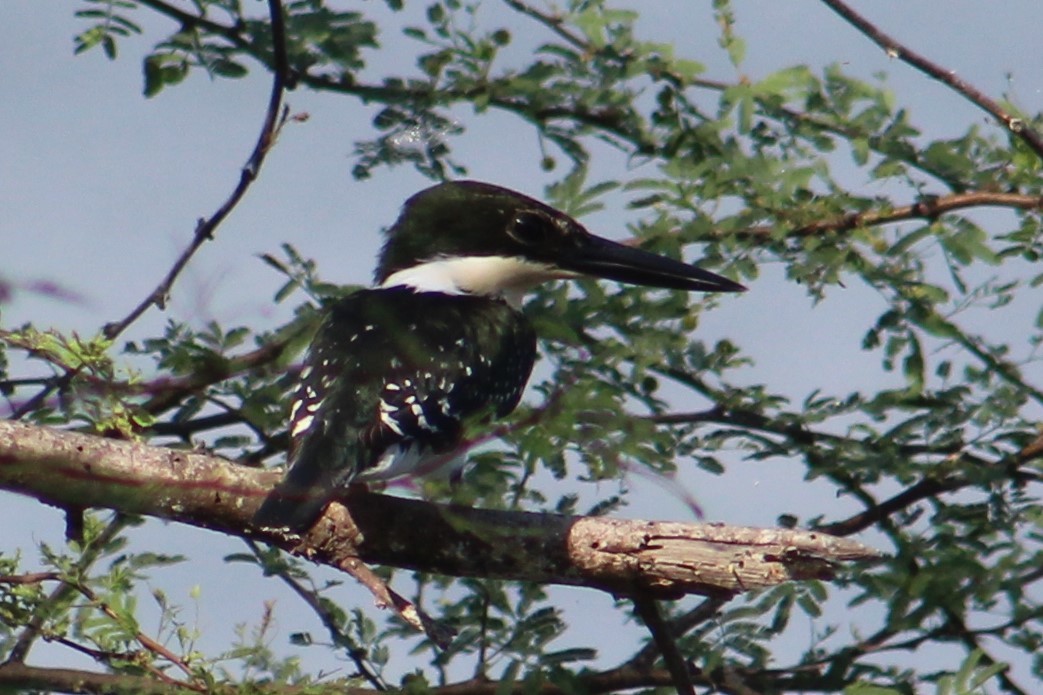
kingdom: Animalia
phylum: Chordata
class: Aves
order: Coraciiformes
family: Alcedinidae
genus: Chloroceryle
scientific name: Chloroceryle americana
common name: Green kingfisher
